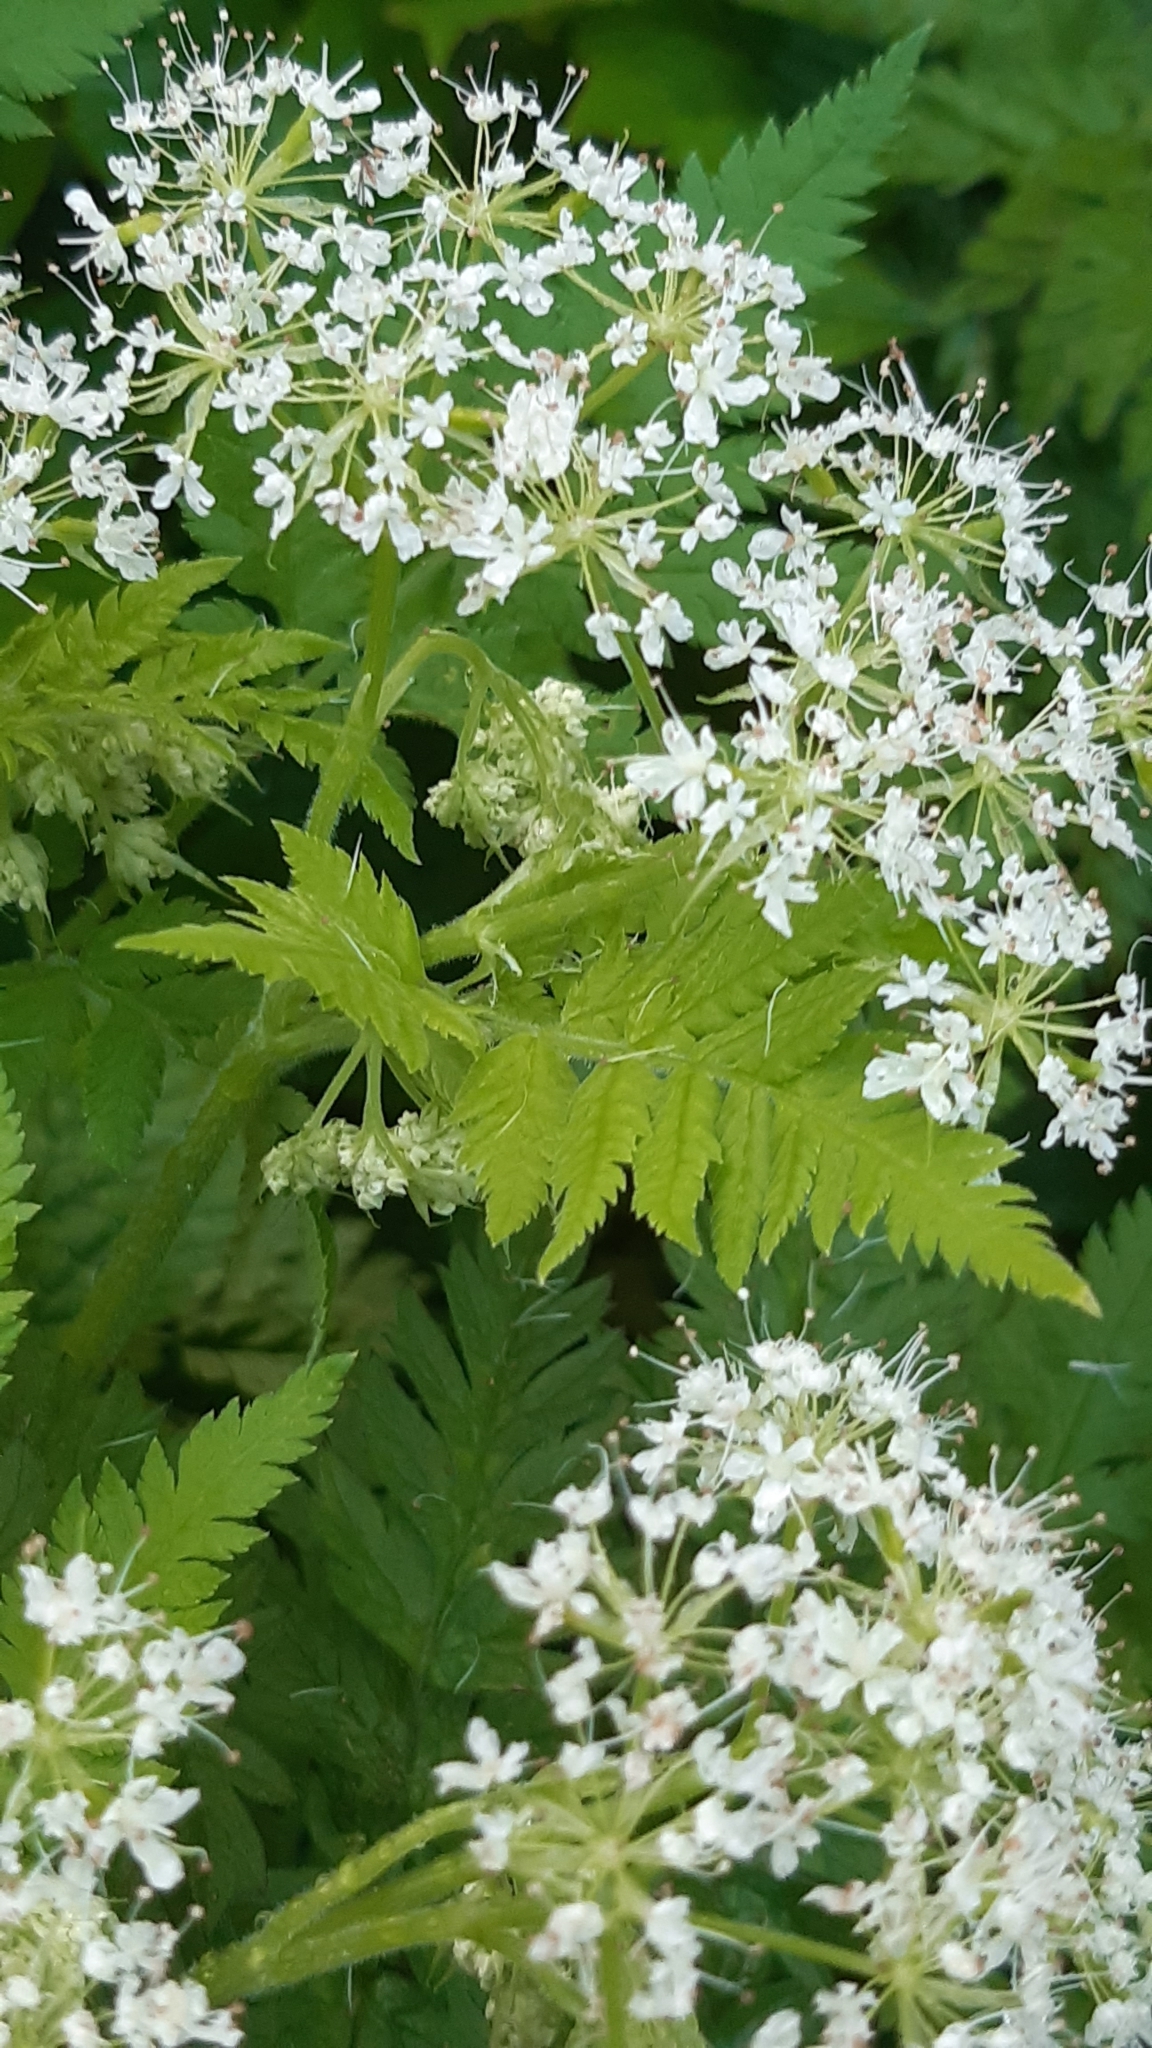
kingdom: Plantae
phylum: Tracheophyta
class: Magnoliopsida
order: Apiales
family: Apiaceae
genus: Myrrhis
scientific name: Myrrhis odorata
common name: Sweet cicely
